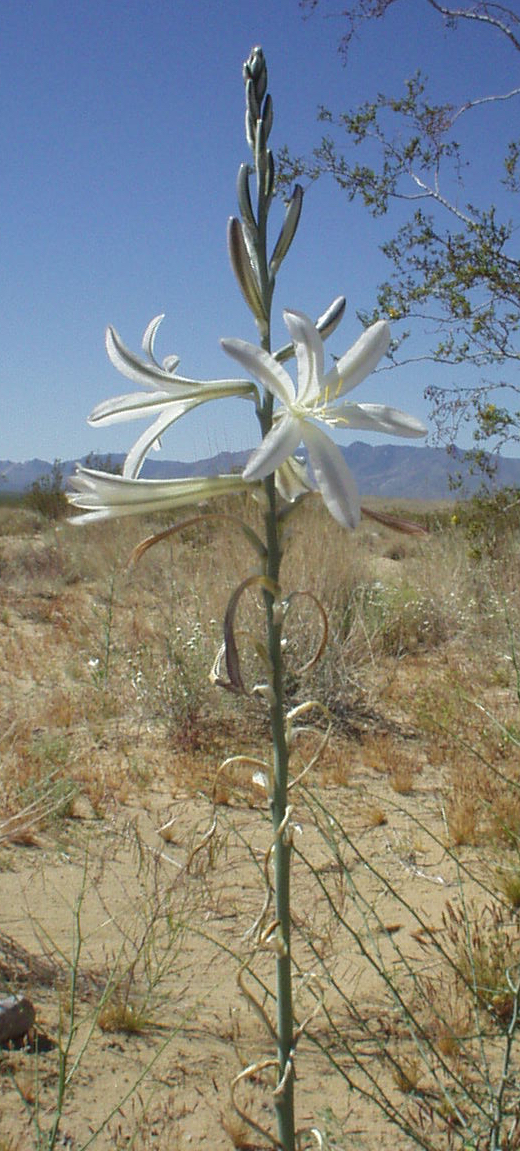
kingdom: Plantae
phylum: Tracheophyta
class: Liliopsida
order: Asparagales
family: Asparagaceae
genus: Hesperocallis
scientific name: Hesperocallis undulata
